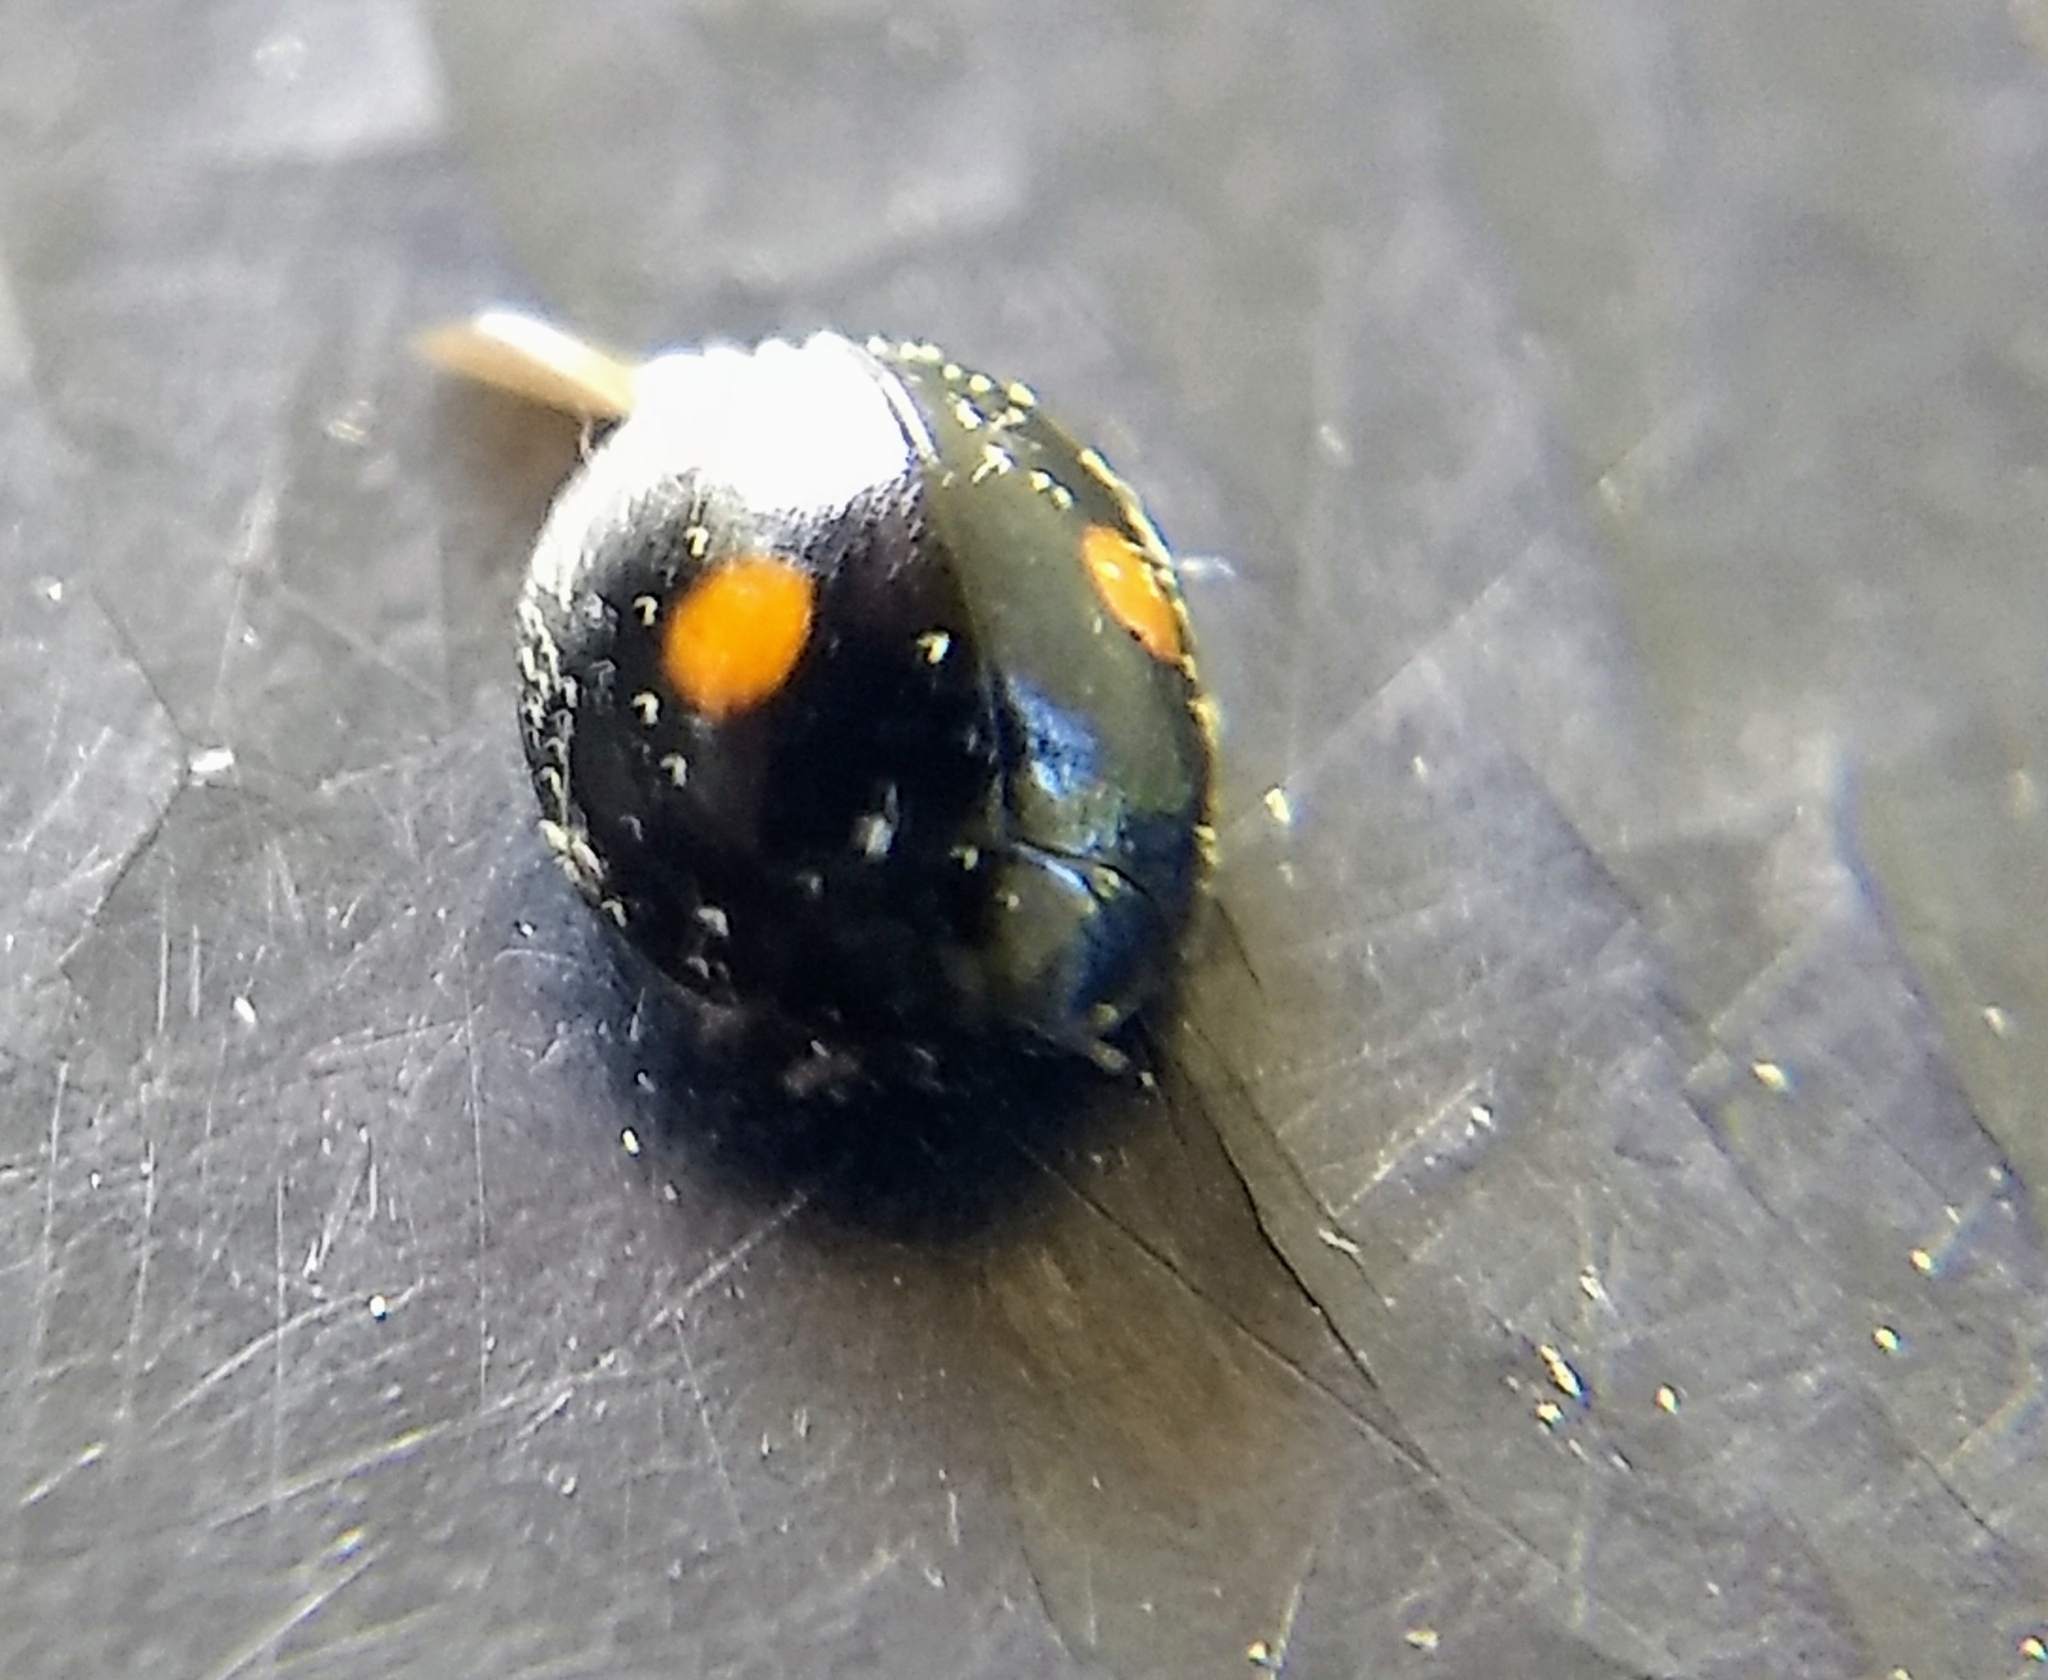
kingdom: Animalia
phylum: Arthropoda
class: Insecta
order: Coleoptera
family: Coccinellidae
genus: Chilocorus
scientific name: Chilocorus stigma
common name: Twicestabbed lady beetle
